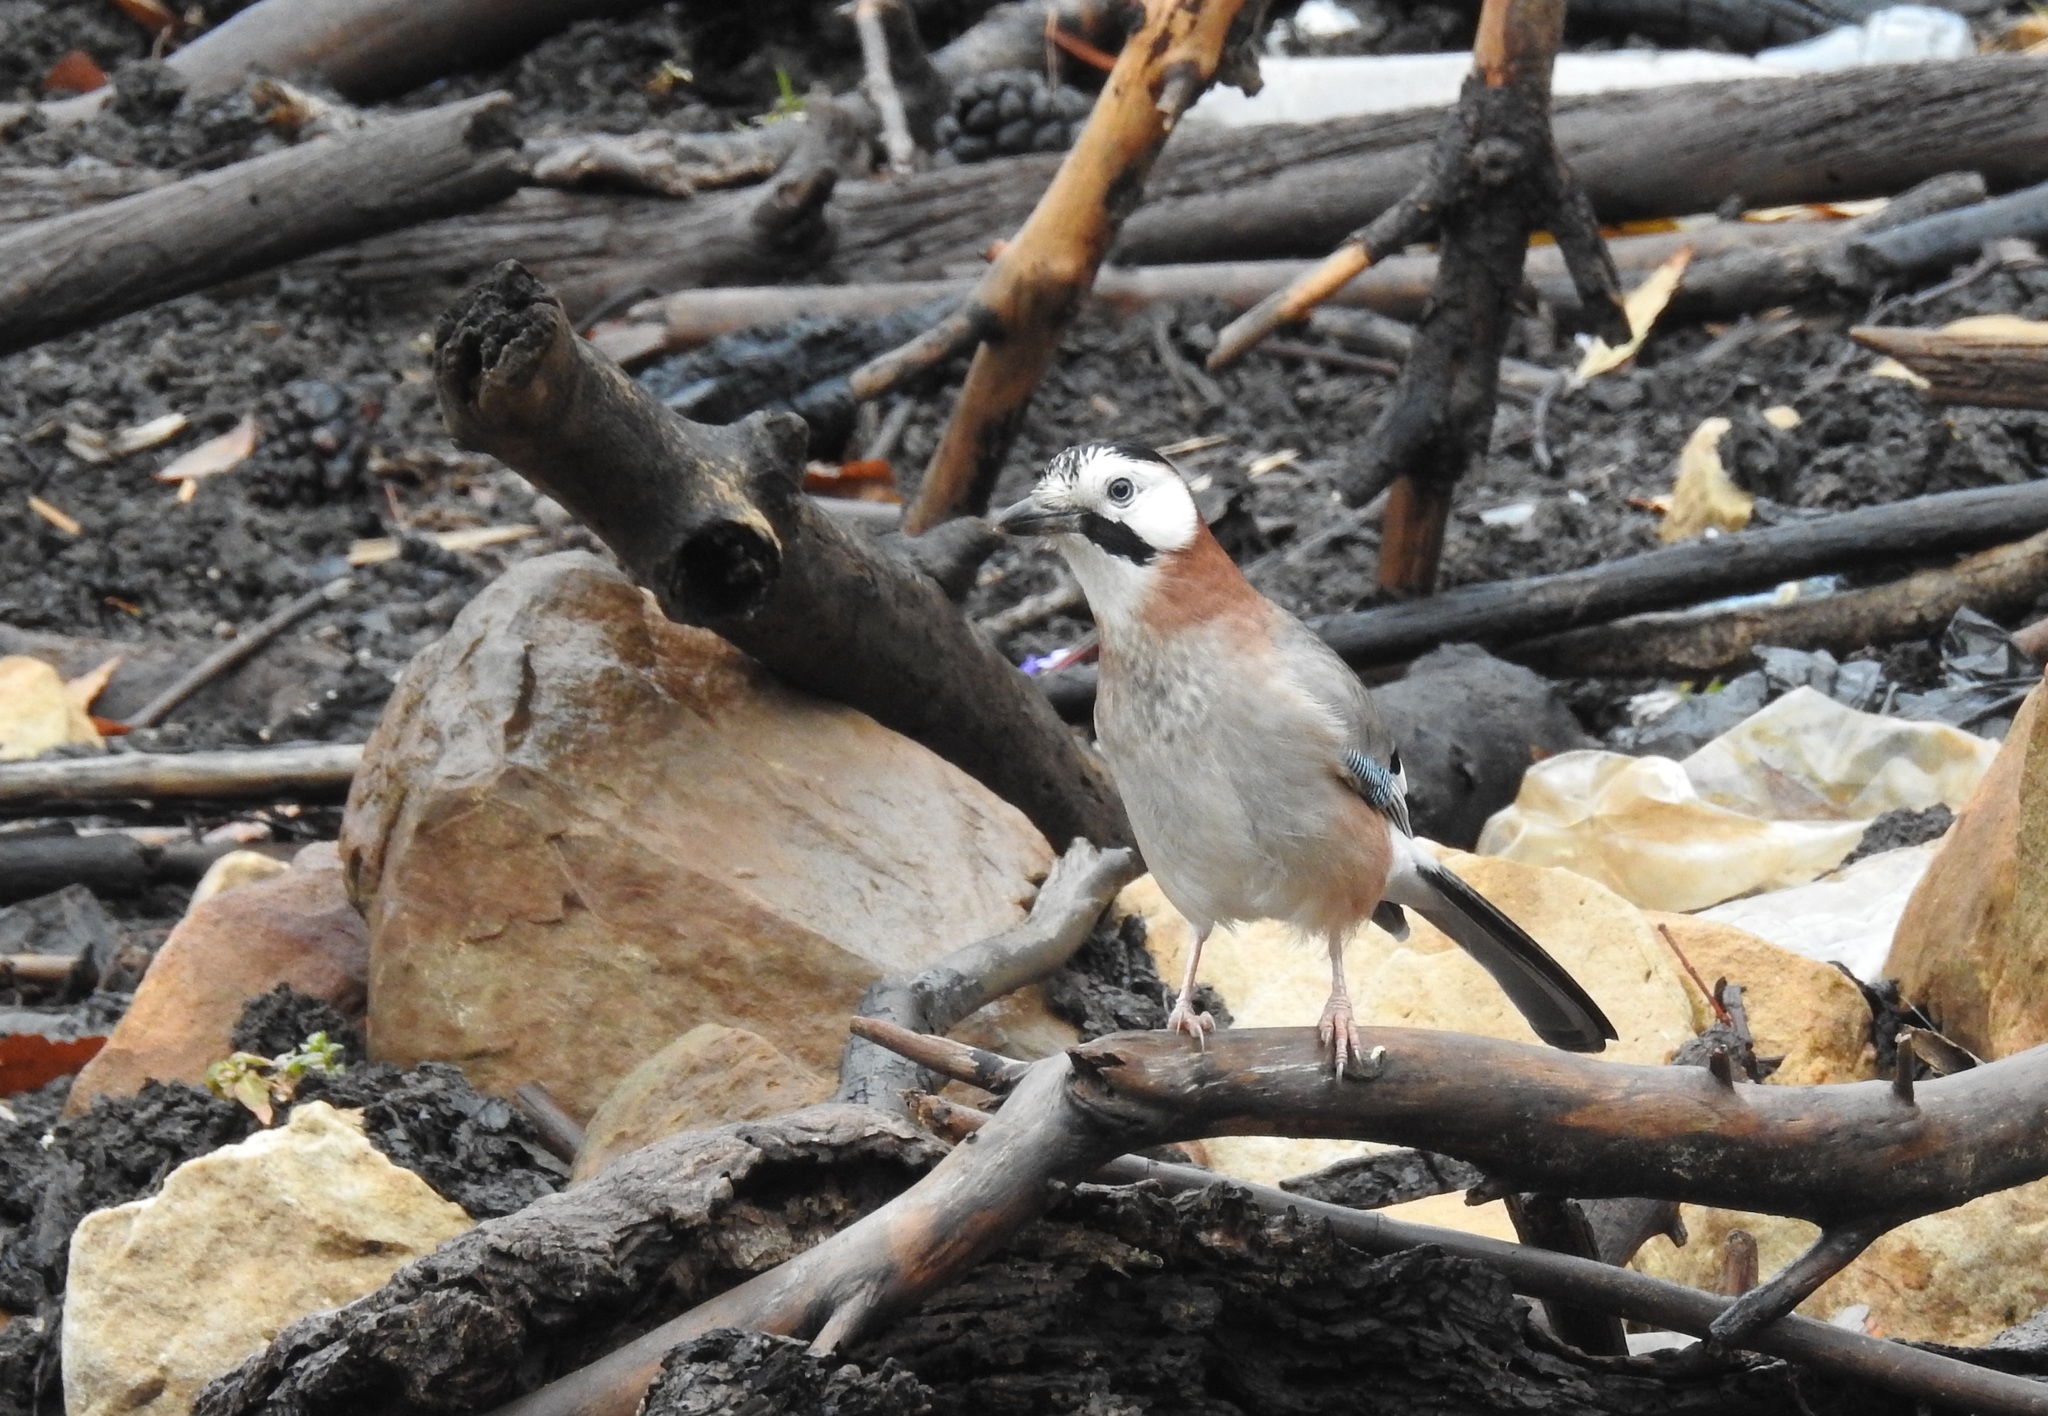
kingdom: Animalia
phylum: Chordata
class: Aves
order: Passeriformes
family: Corvidae
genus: Garrulus
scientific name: Garrulus glandarius
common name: Eurasian jay
